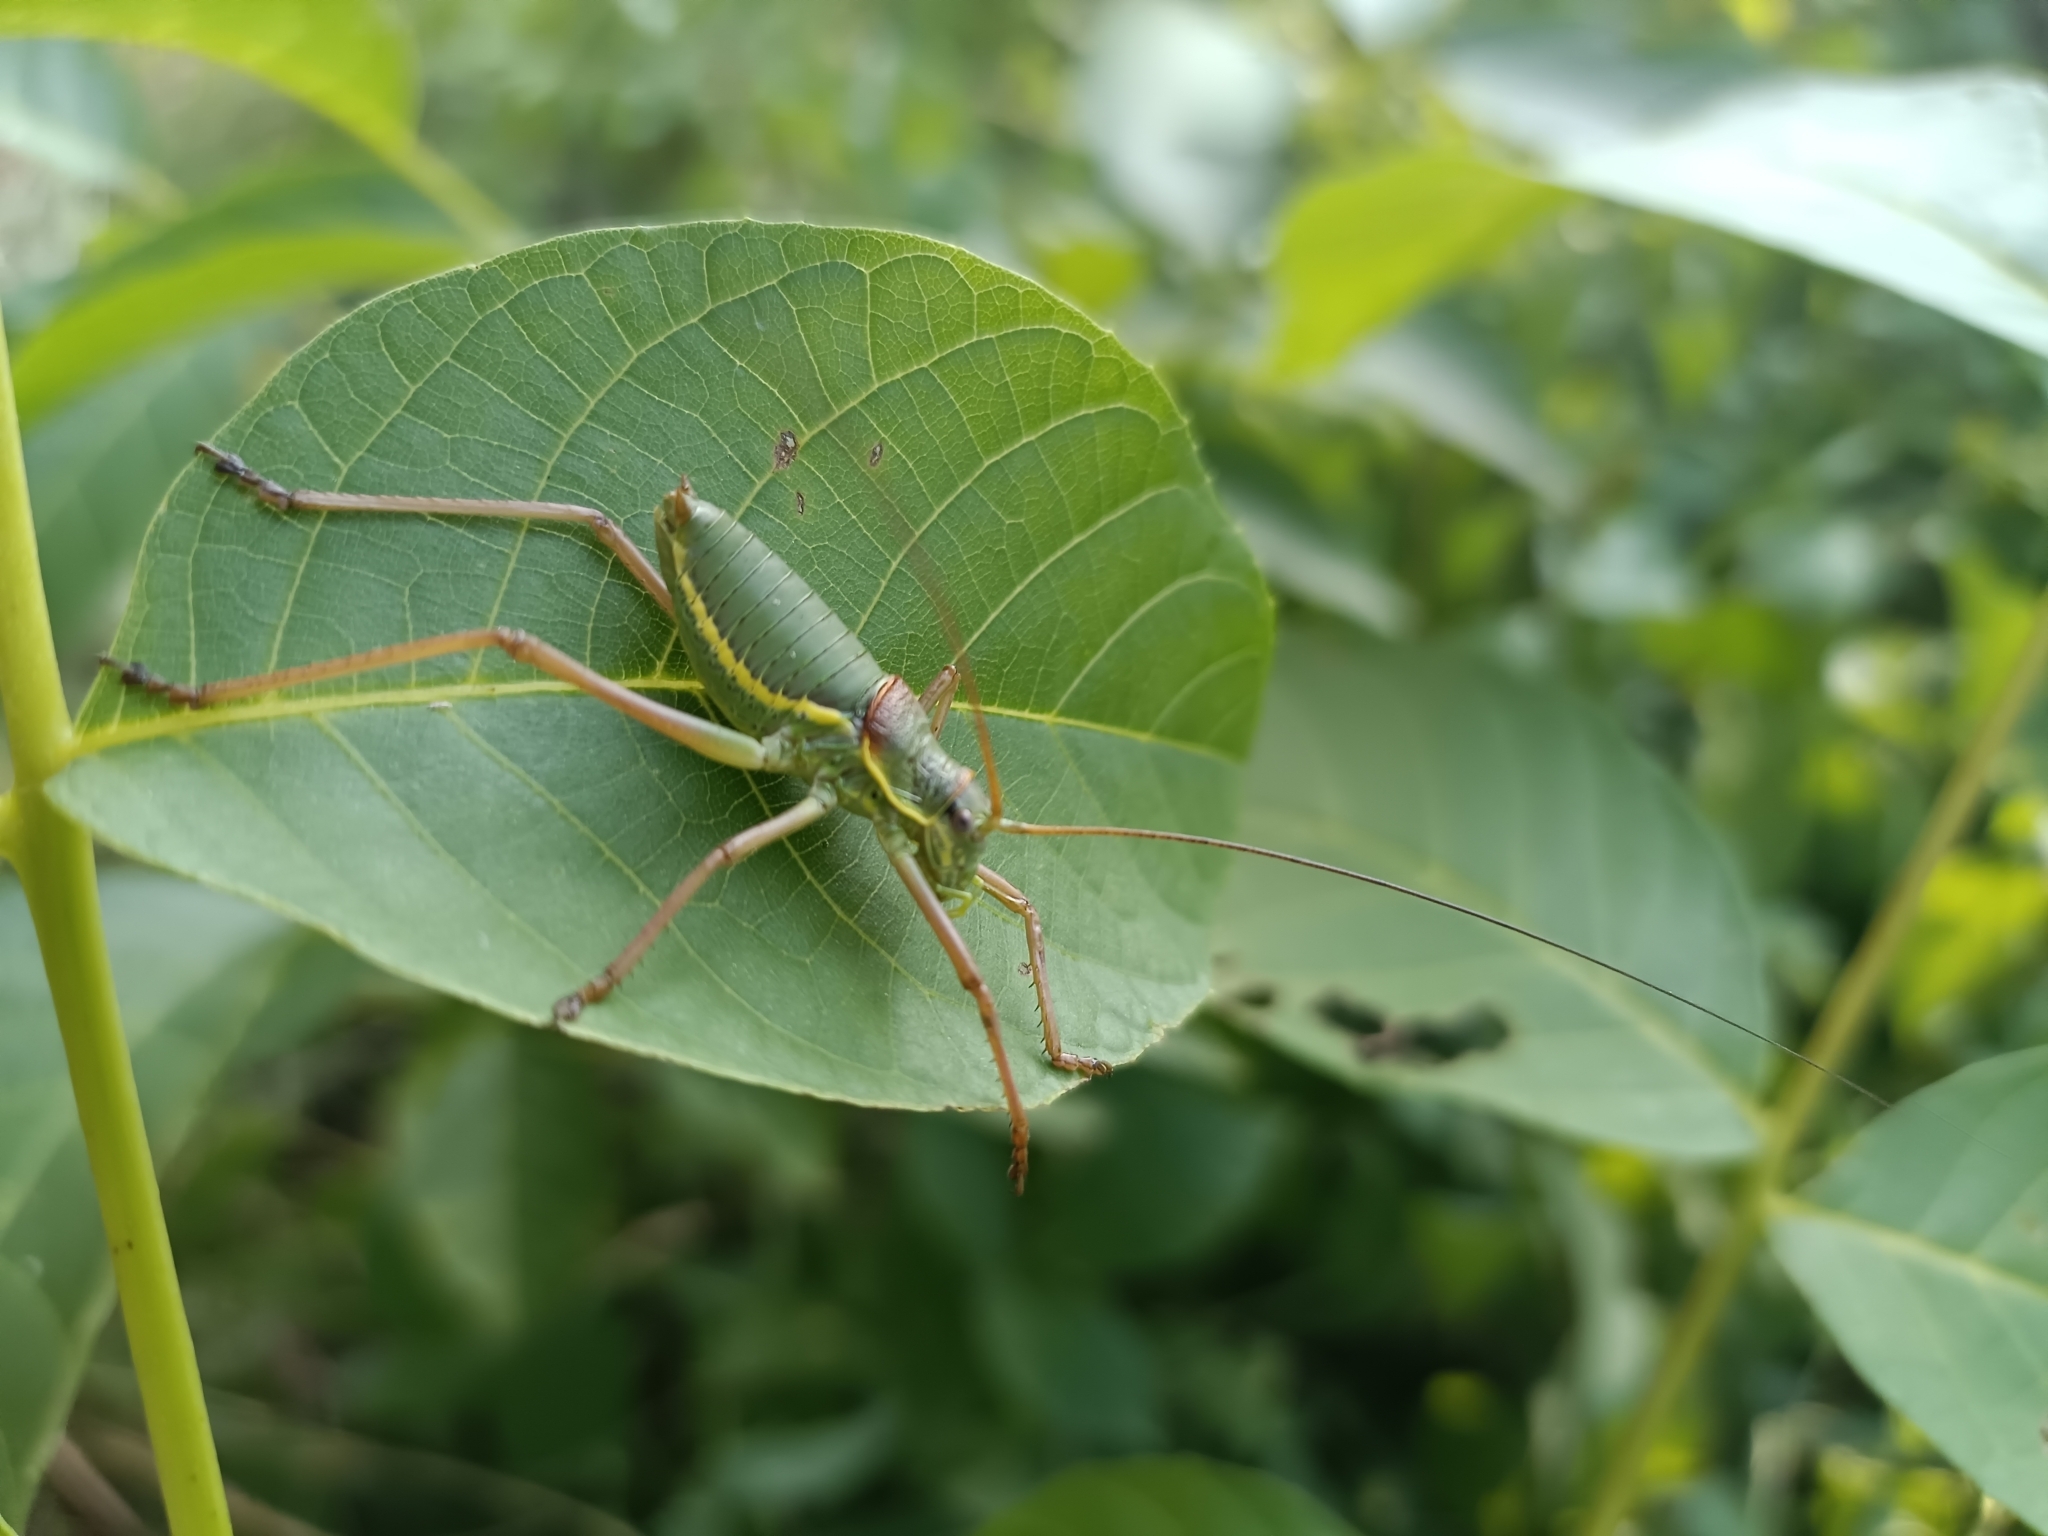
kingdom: Animalia
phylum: Arthropoda
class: Insecta
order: Orthoptera
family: Tettigoniidae
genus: Ephippiger
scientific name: Ephippiger ephippiger
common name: Eastern saddle bush-cricket
